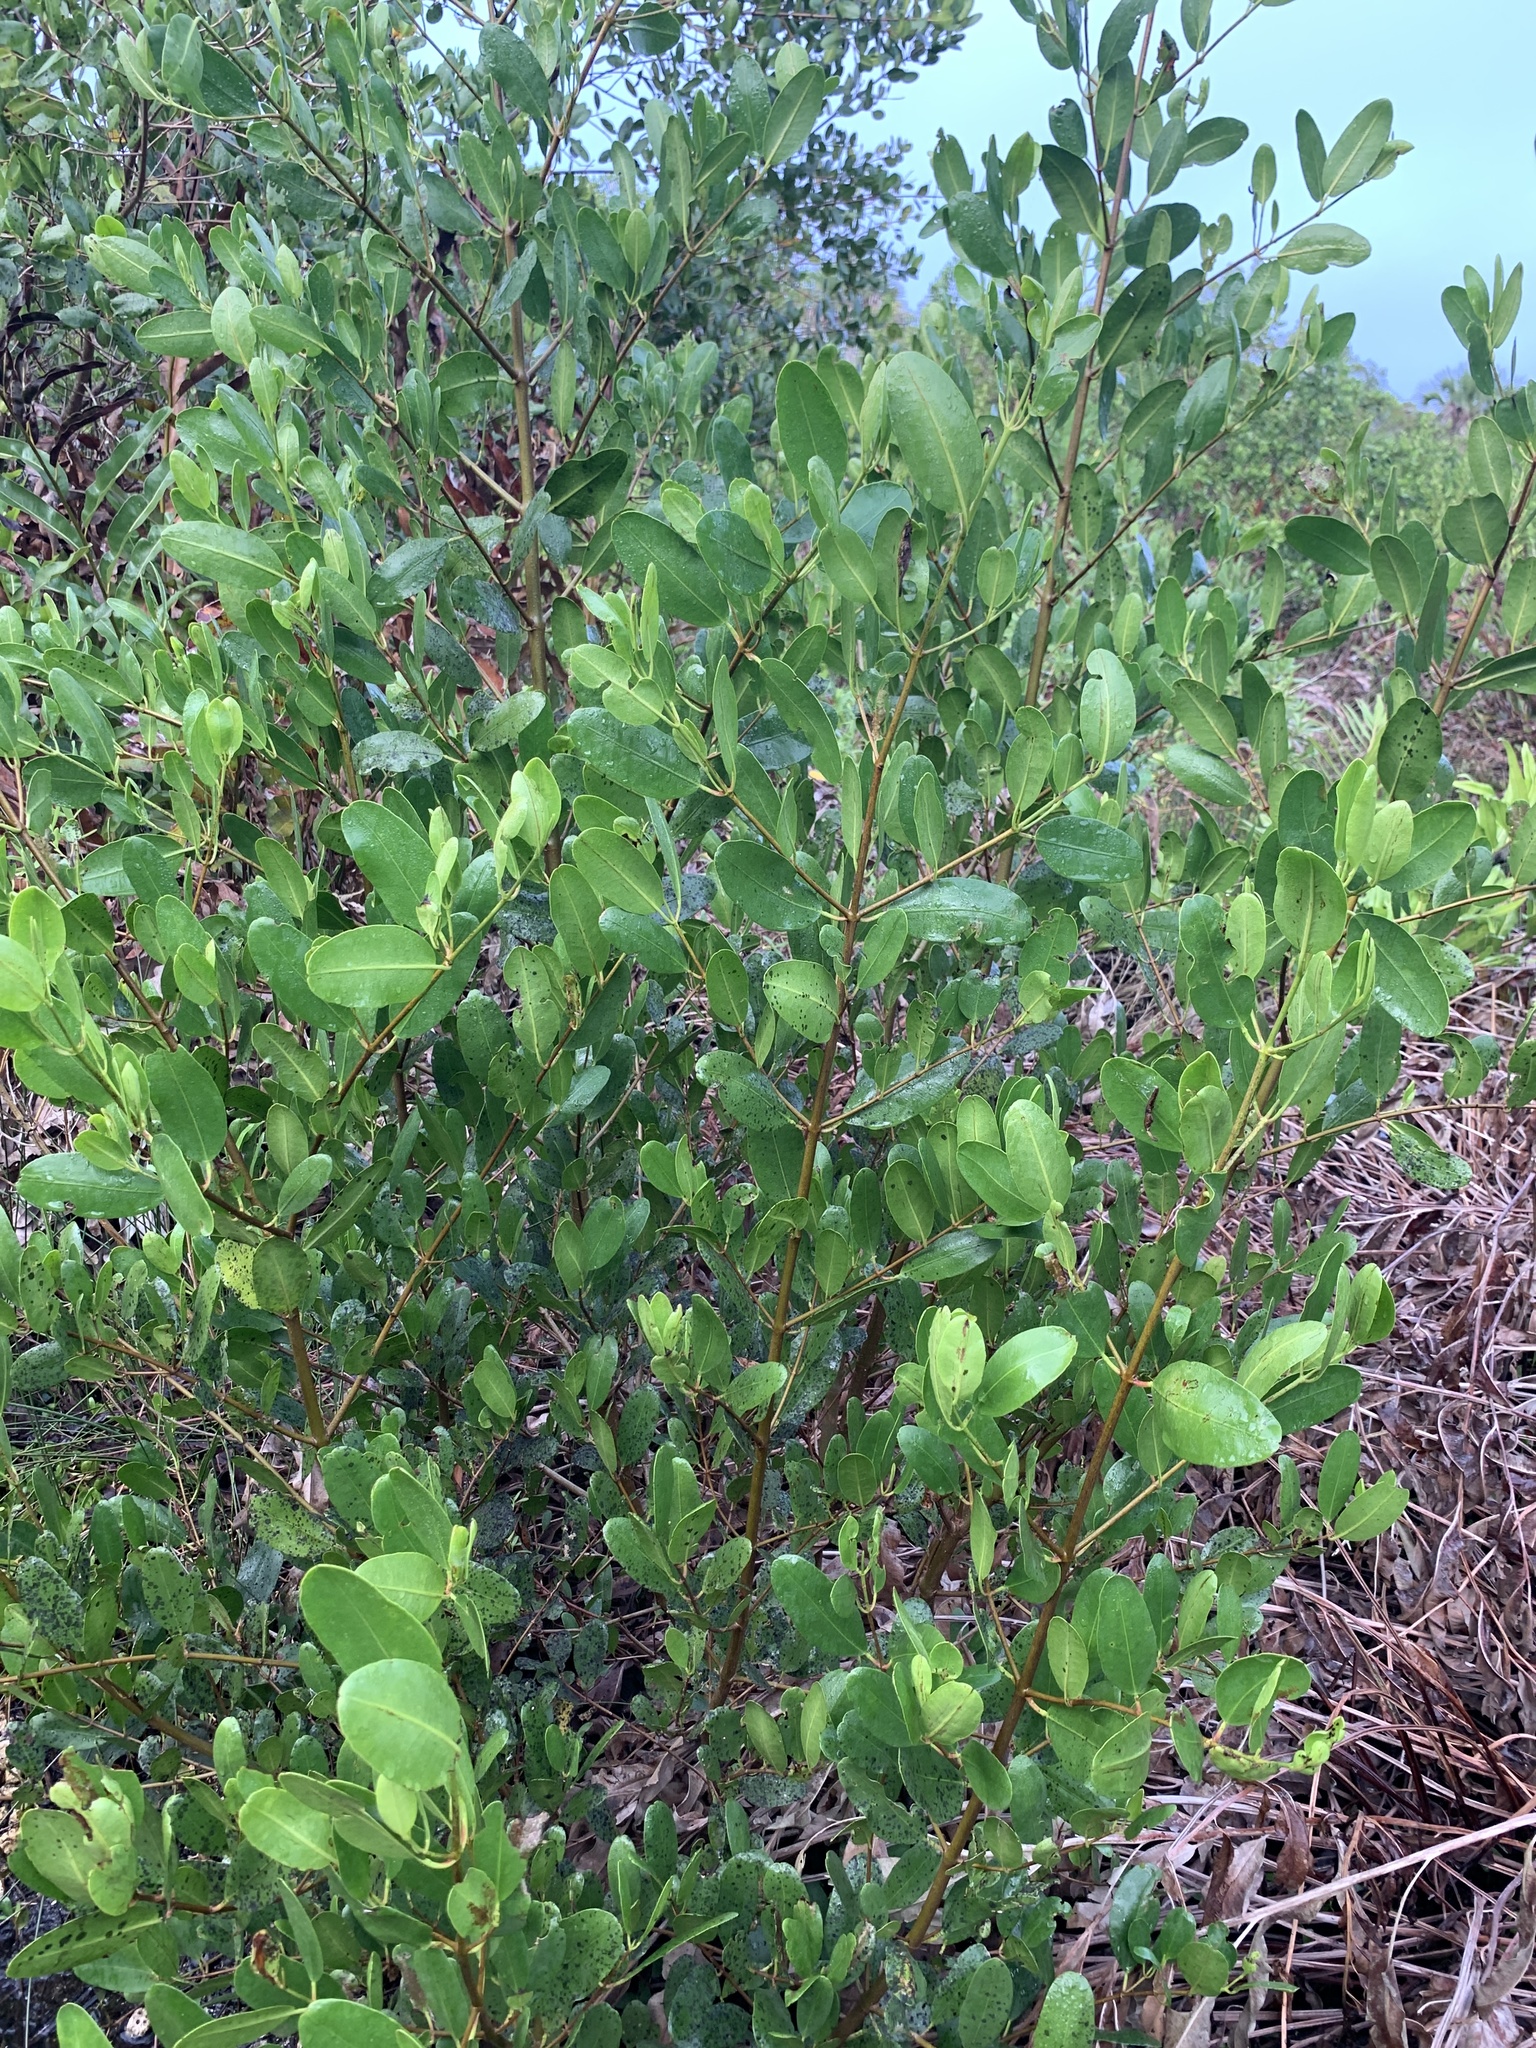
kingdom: Plantae
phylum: Tracheophyta
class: Magnoliopsida
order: Myrtales
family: Combretaceae
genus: Laguncularia
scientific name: Laguncularia racemosa
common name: White mangrove
